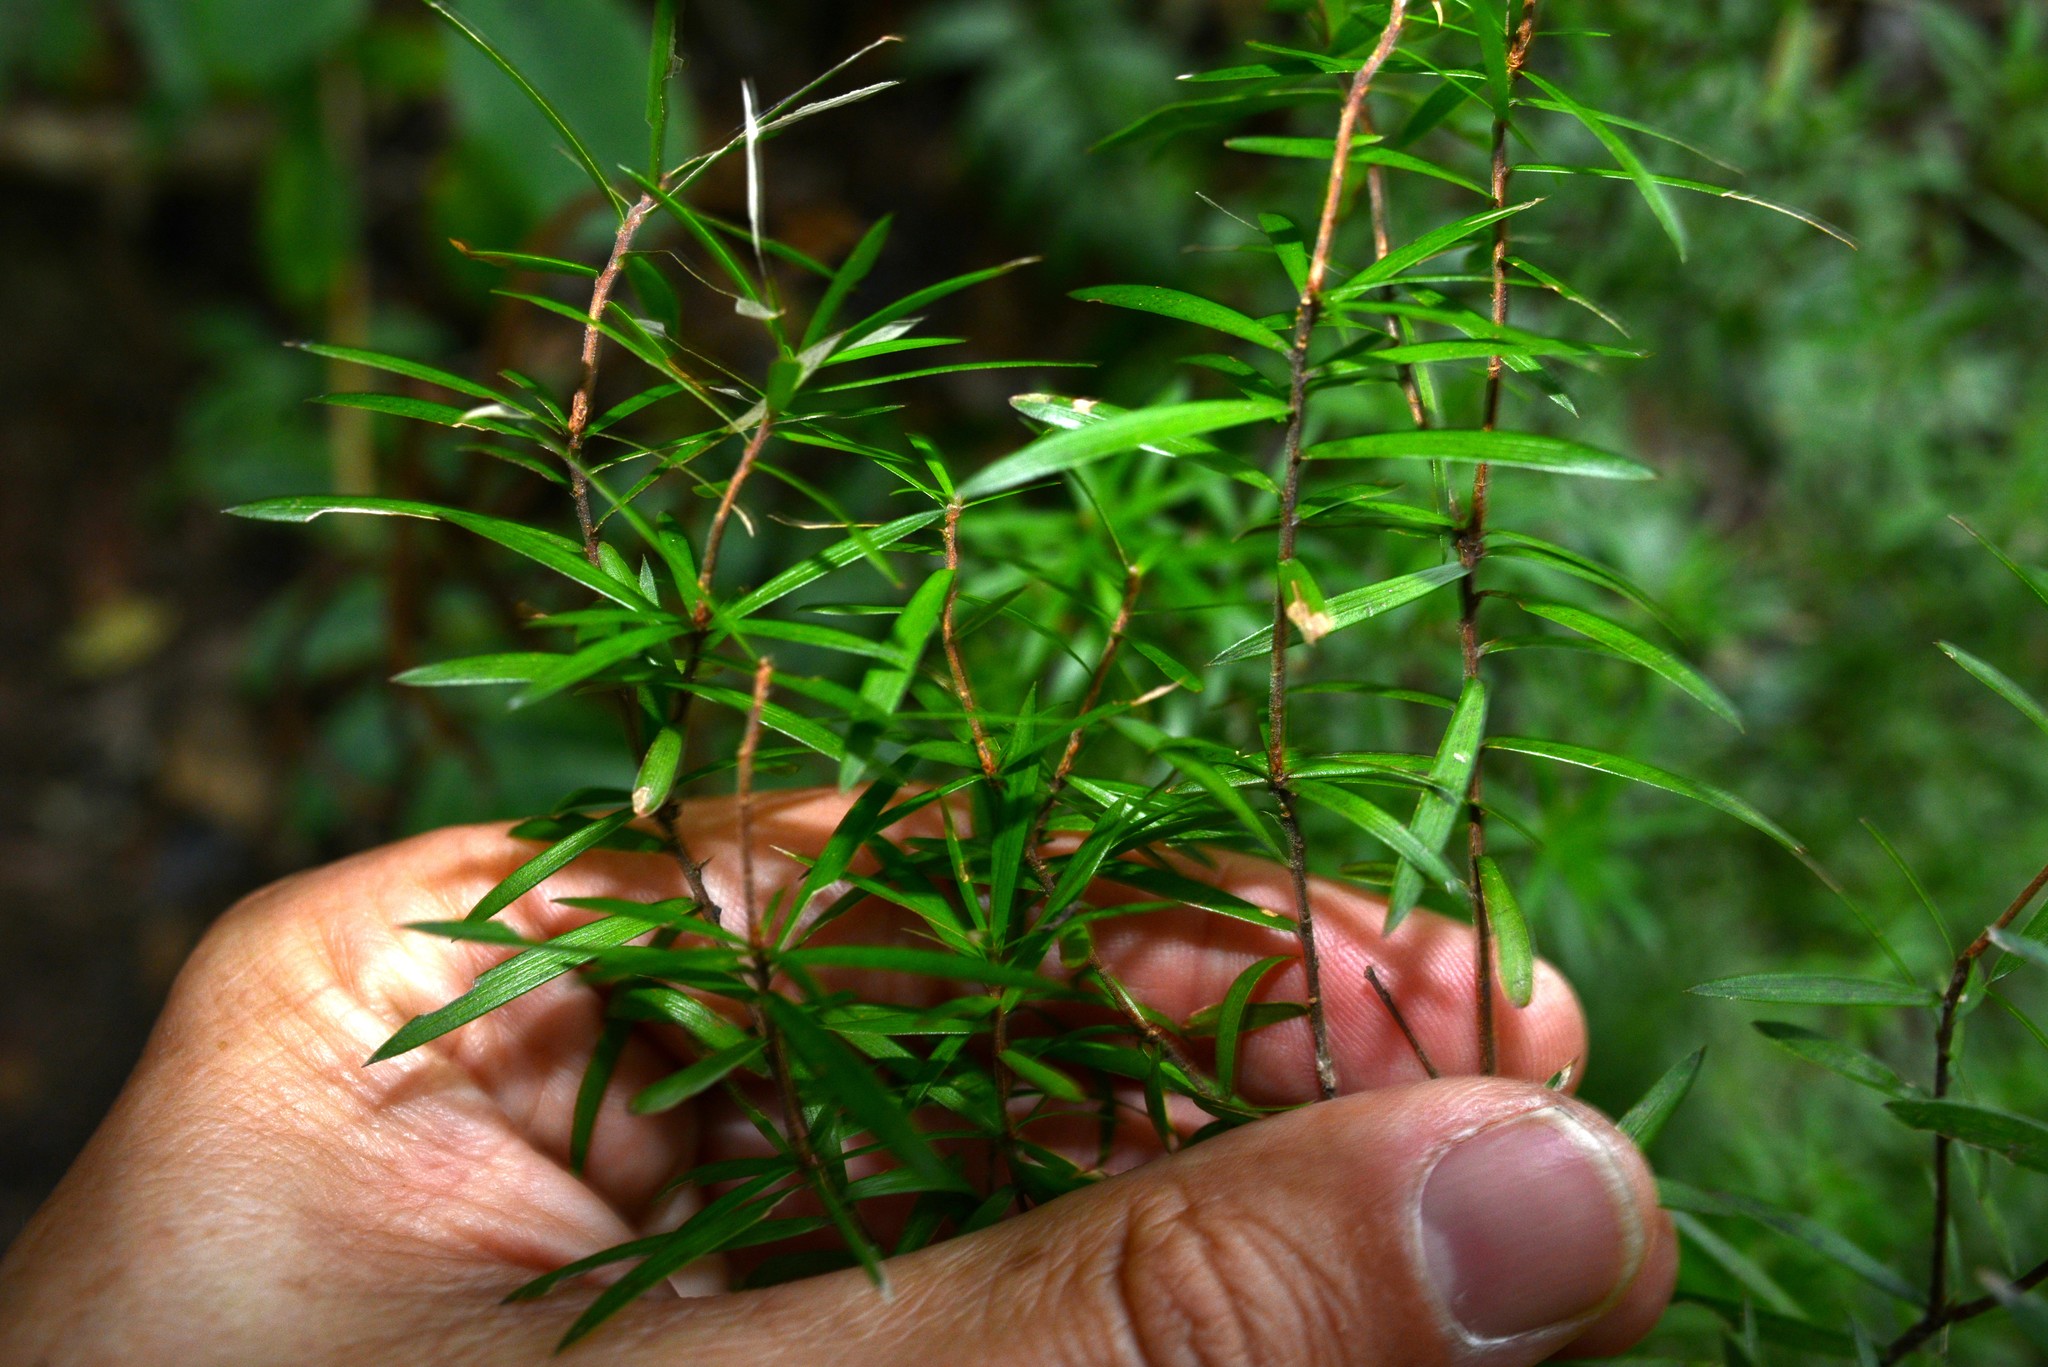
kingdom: Plantae
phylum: Tracheophyta
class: Magnoliopsida
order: Ericales
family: Ericaceae
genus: Leucopogon
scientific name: Leucopogon fasciculatus
